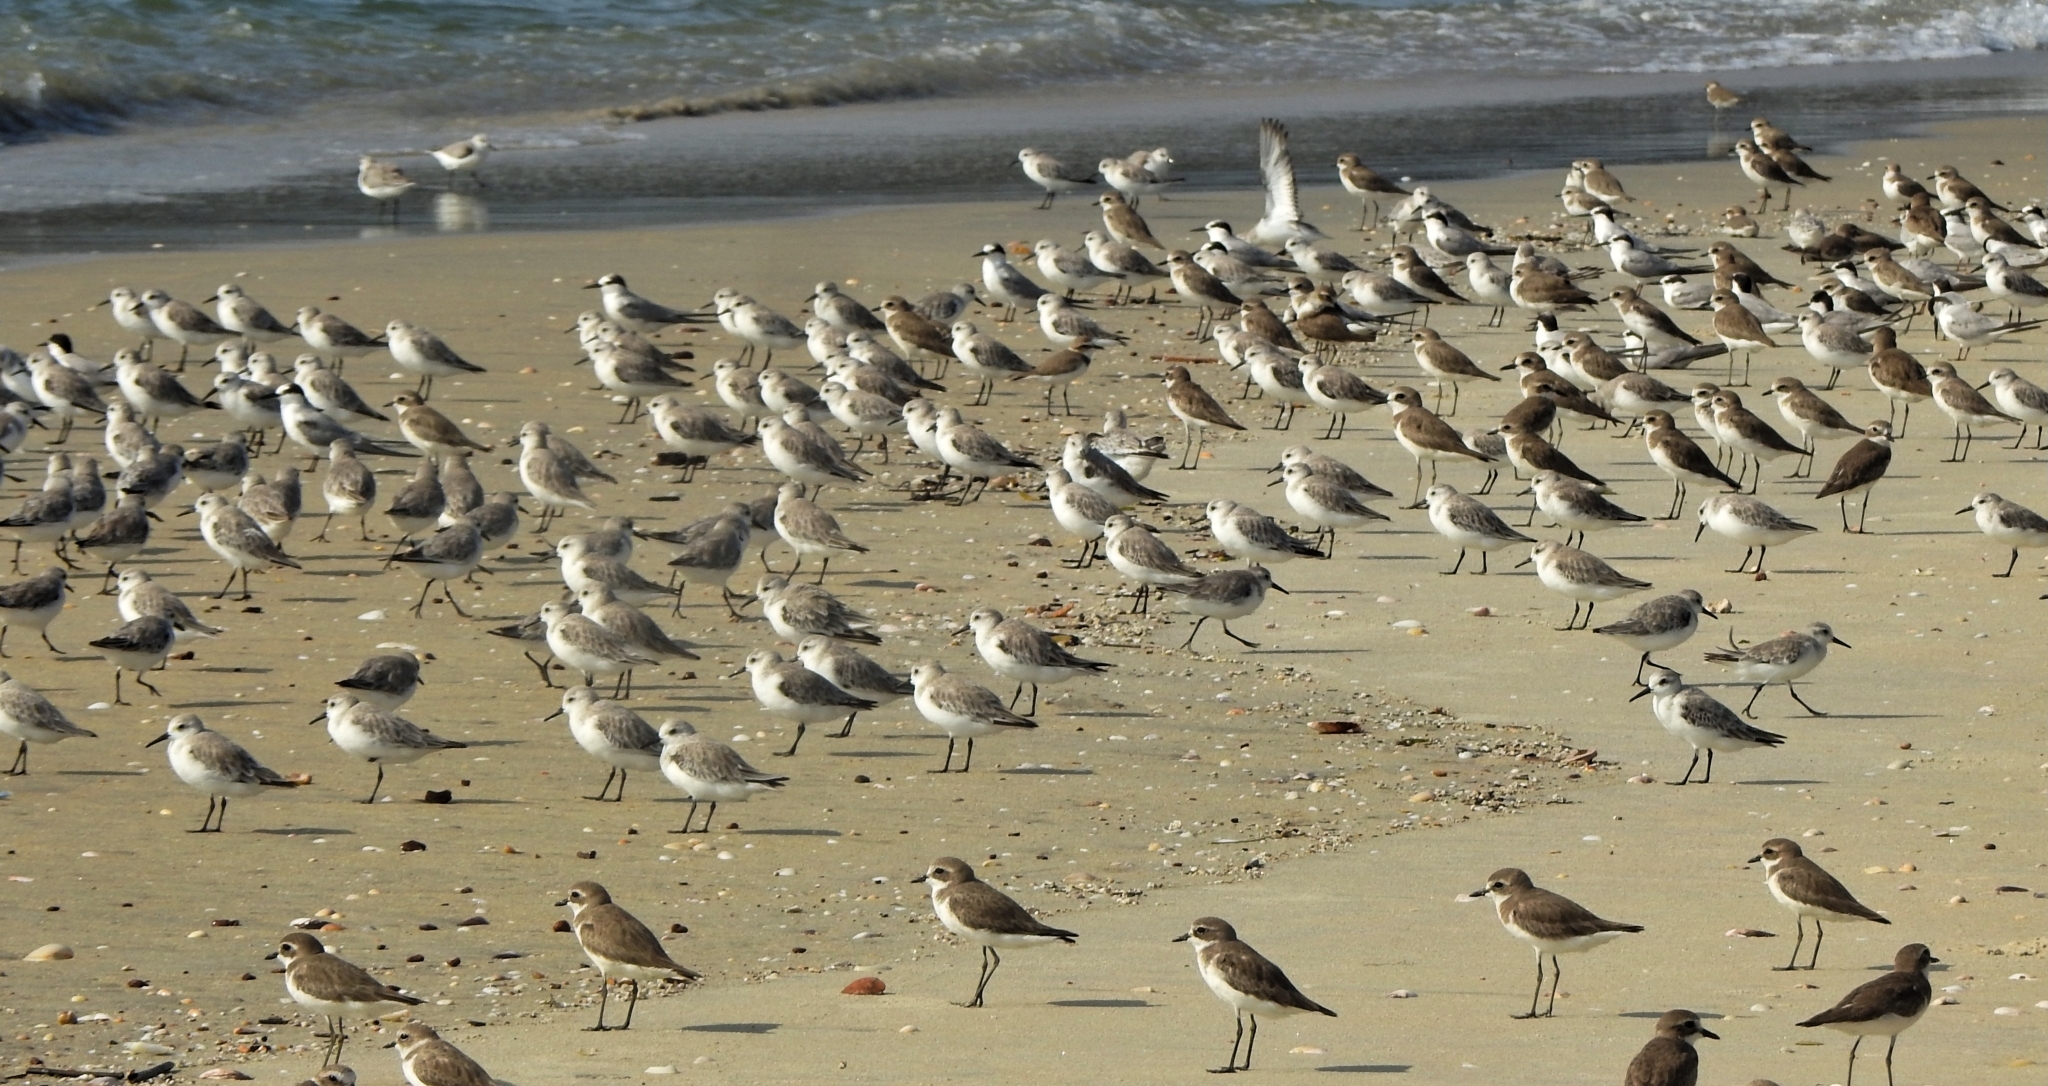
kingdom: Animalia
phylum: Chordata
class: Aves
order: Charadriiformes
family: Charadriidae
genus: Anarhynchus
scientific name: Anarhynchus
